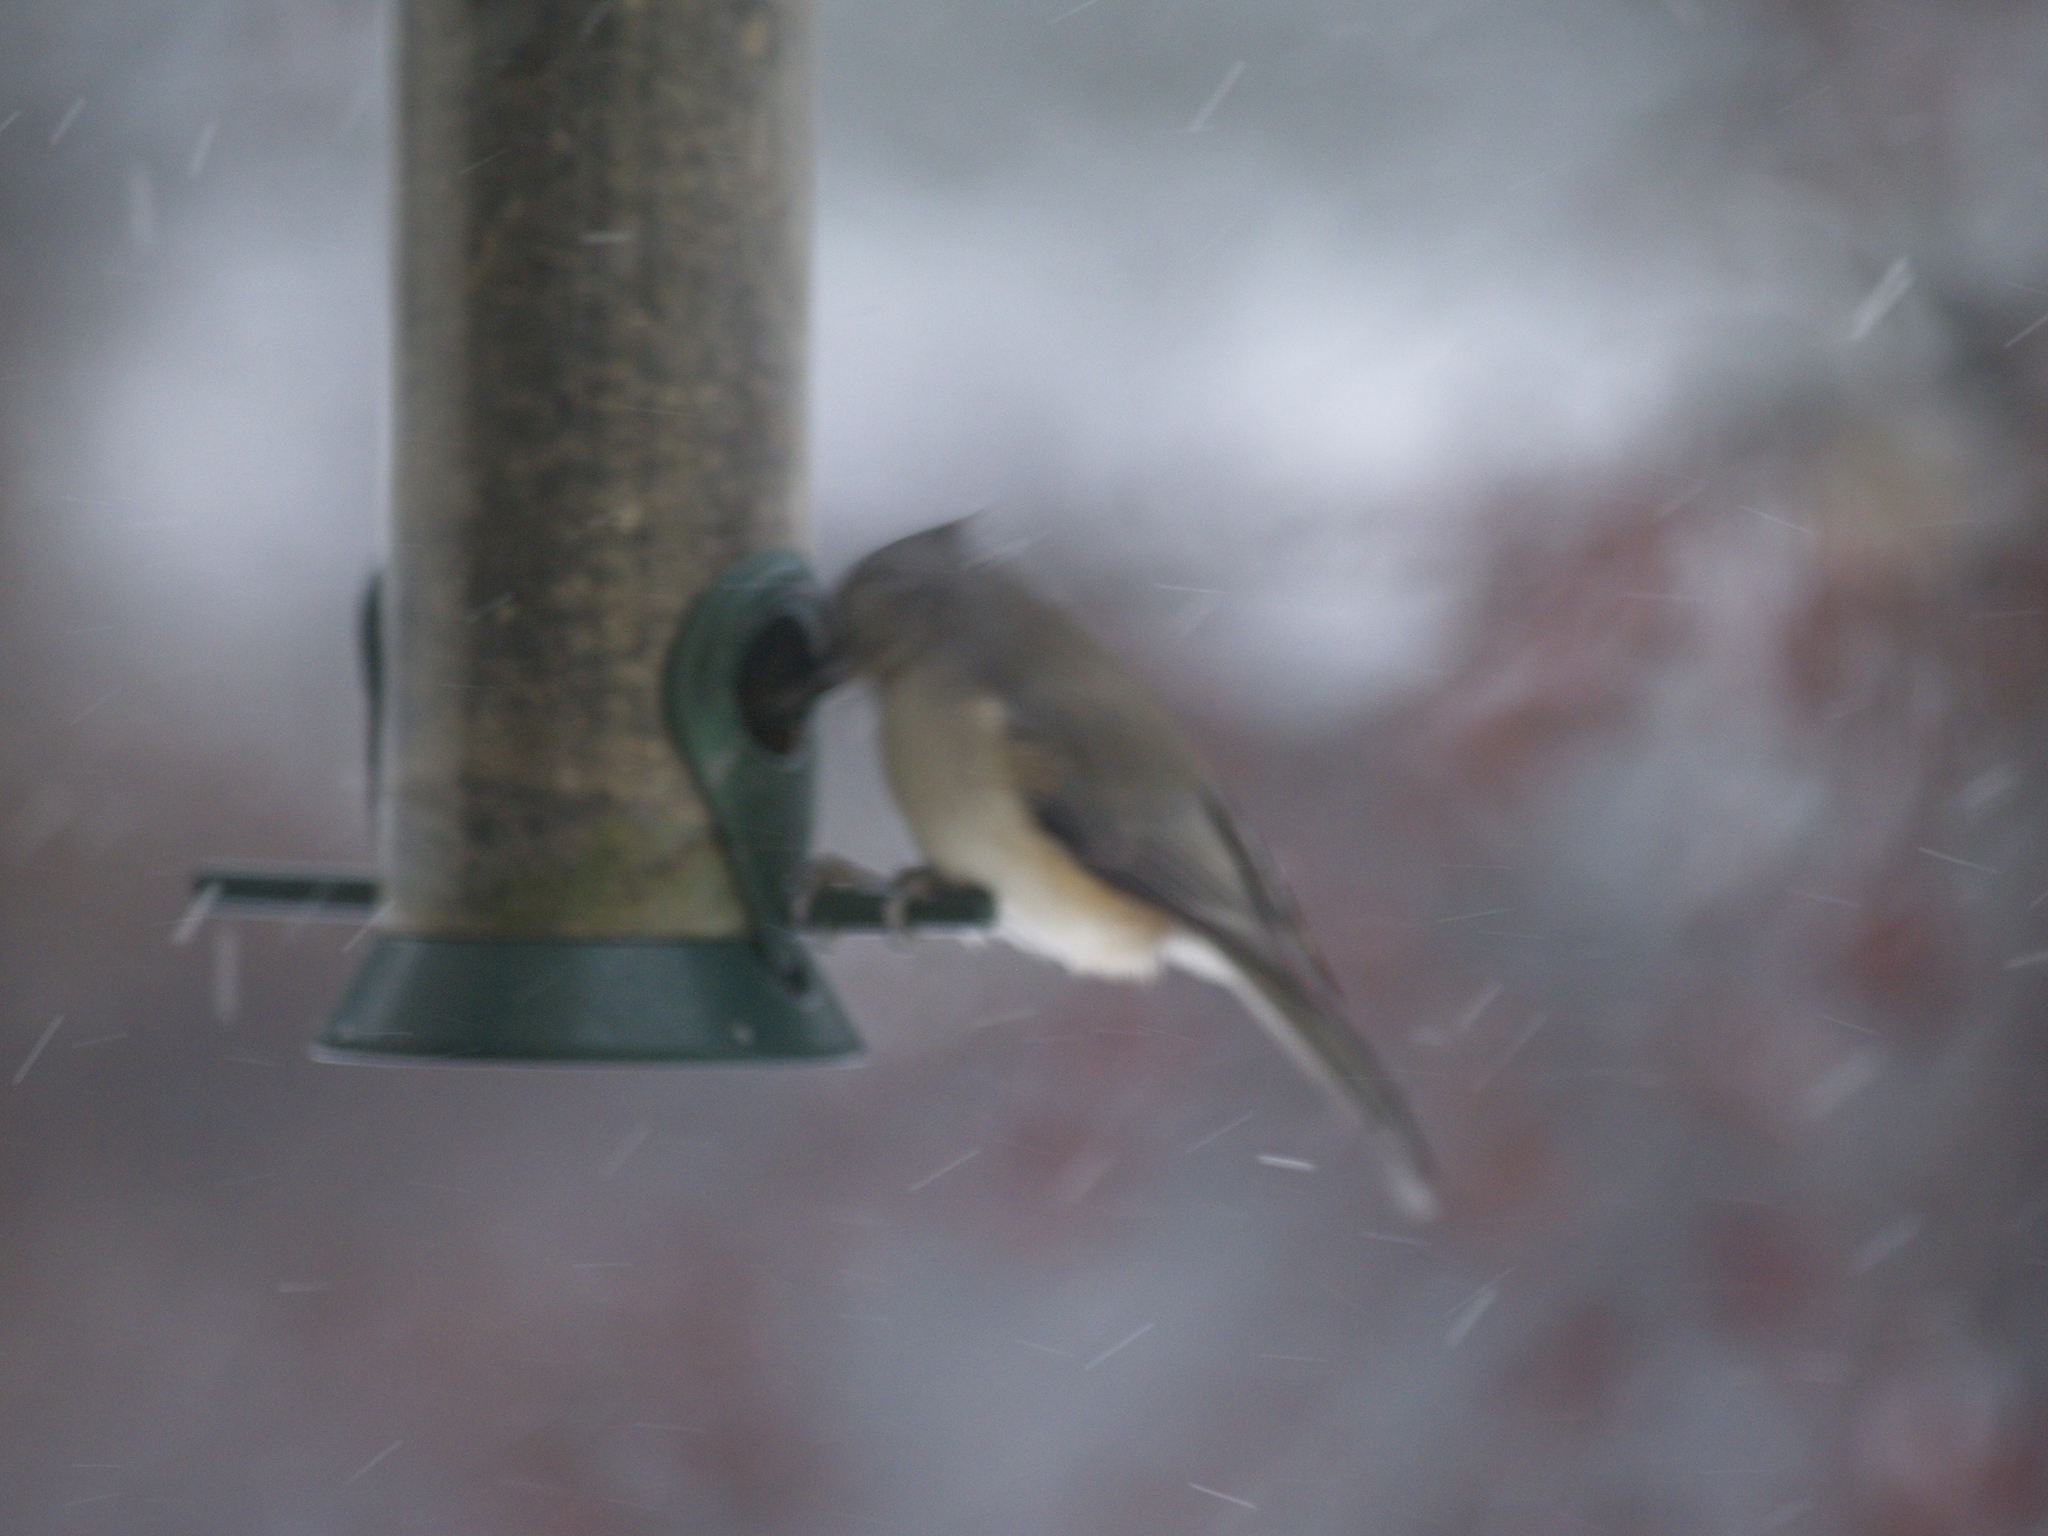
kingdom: Animalia
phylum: Chordata
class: Aves
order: Passeriformes
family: Paridae
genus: Baeolophus
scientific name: Baeolophus bicolor
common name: Tufted titmouse
